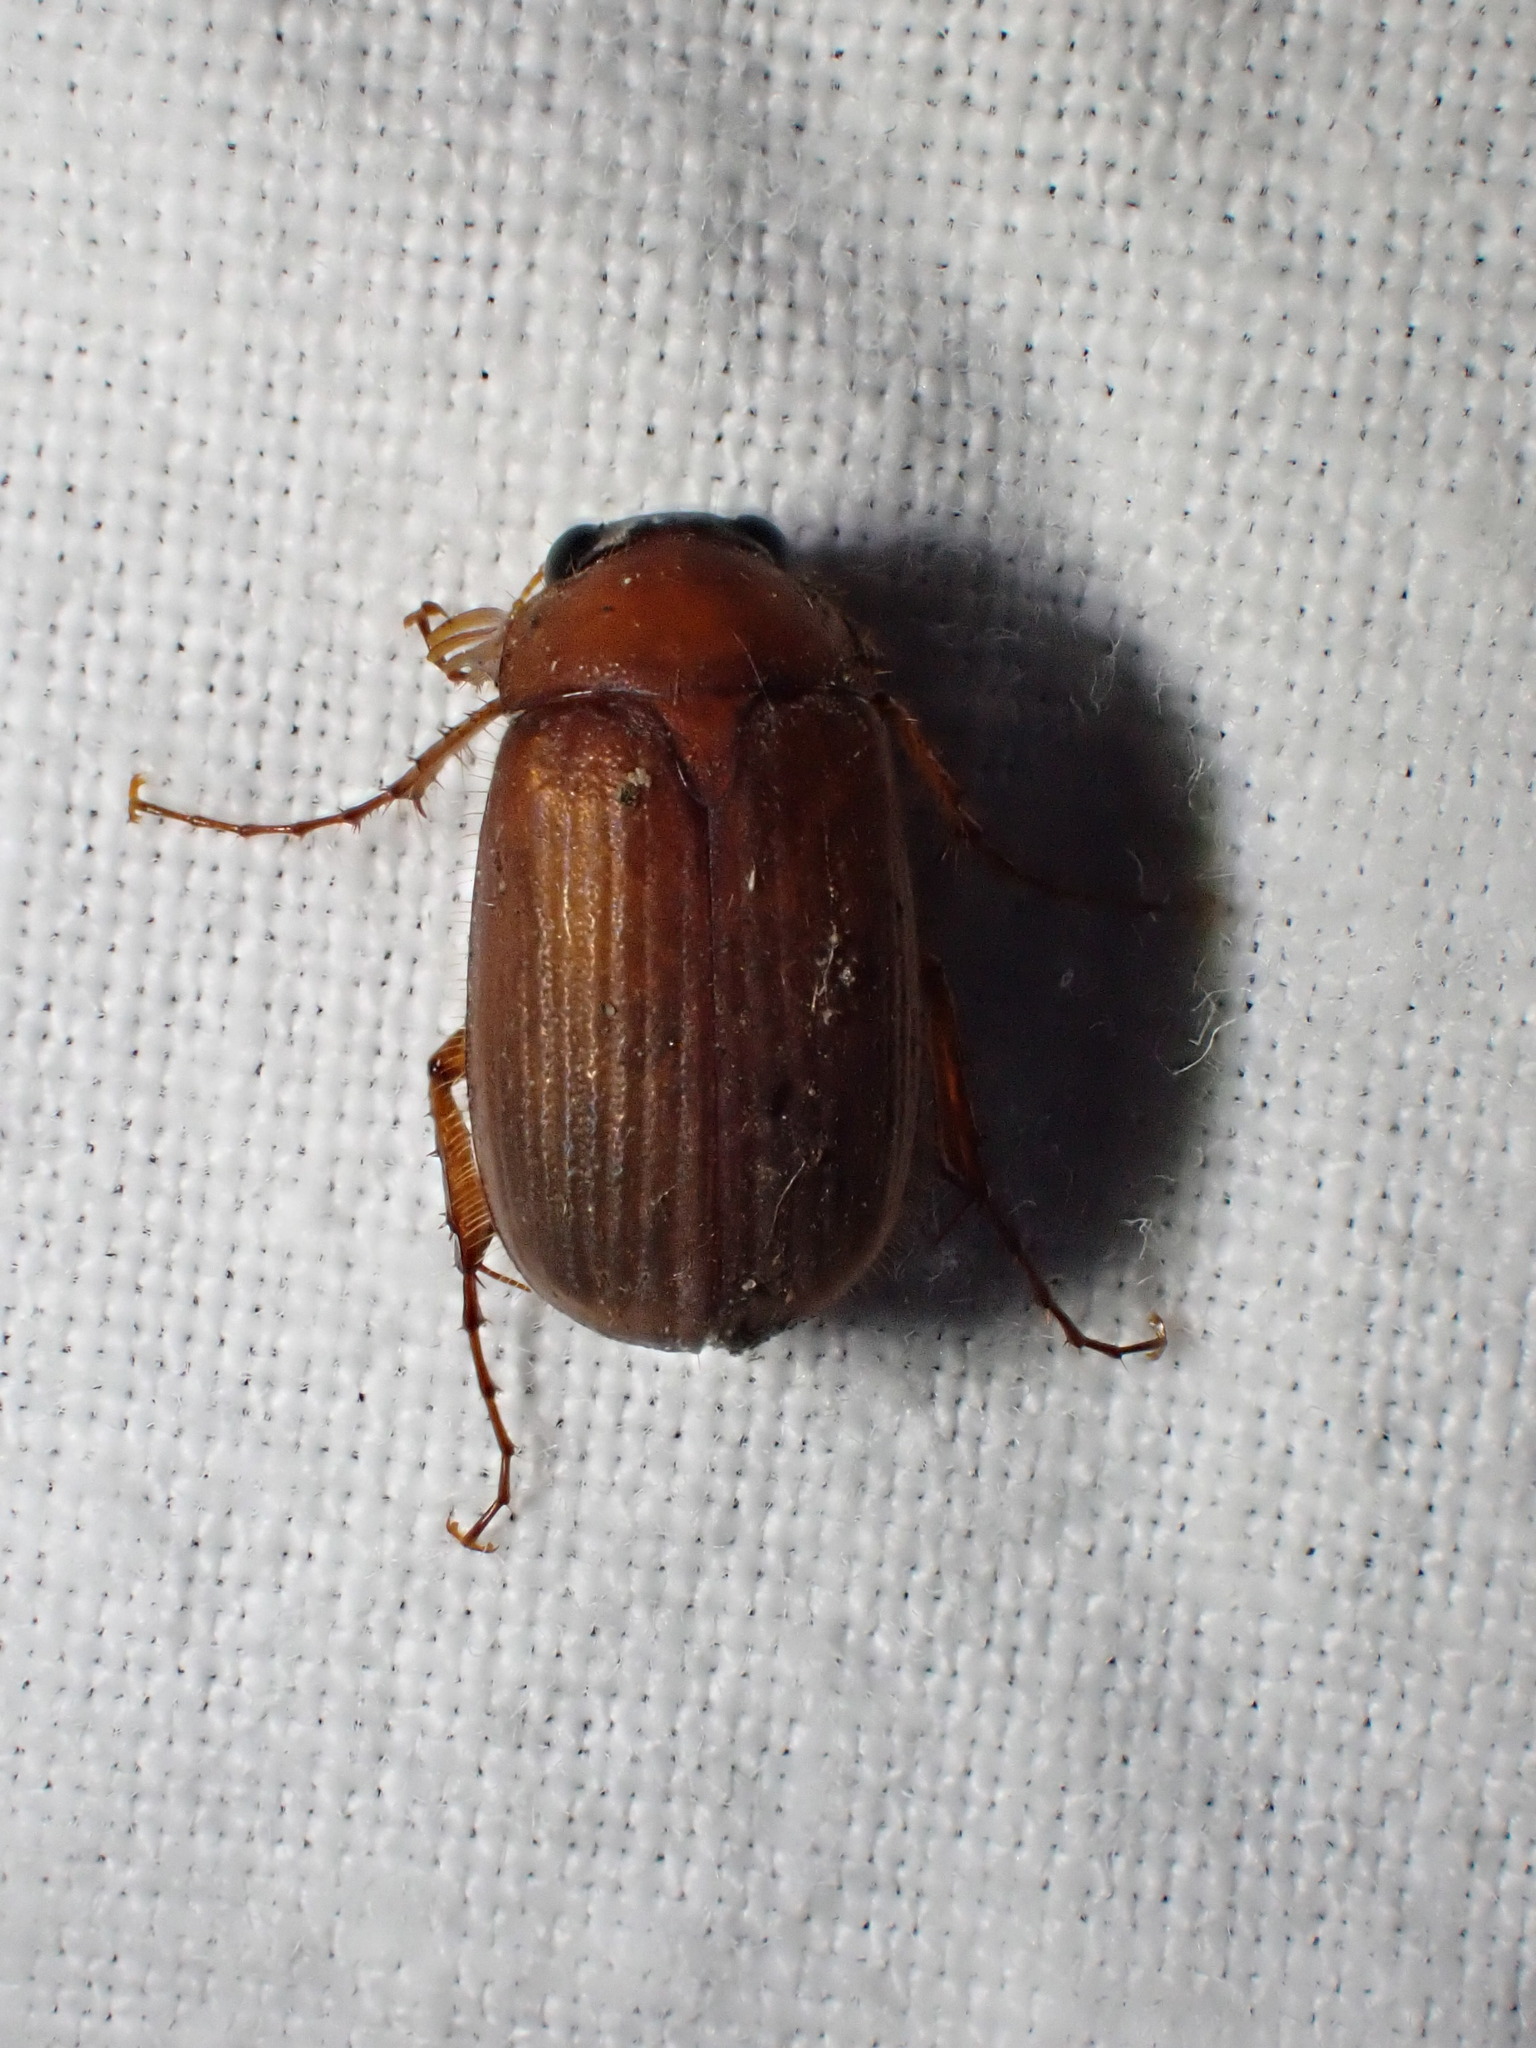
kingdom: Animalia
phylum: Arthropoda
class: Insecta
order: Coleoptera
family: Scarabaeidae
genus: Serica
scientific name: Serica brunnea
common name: Brown chafer
